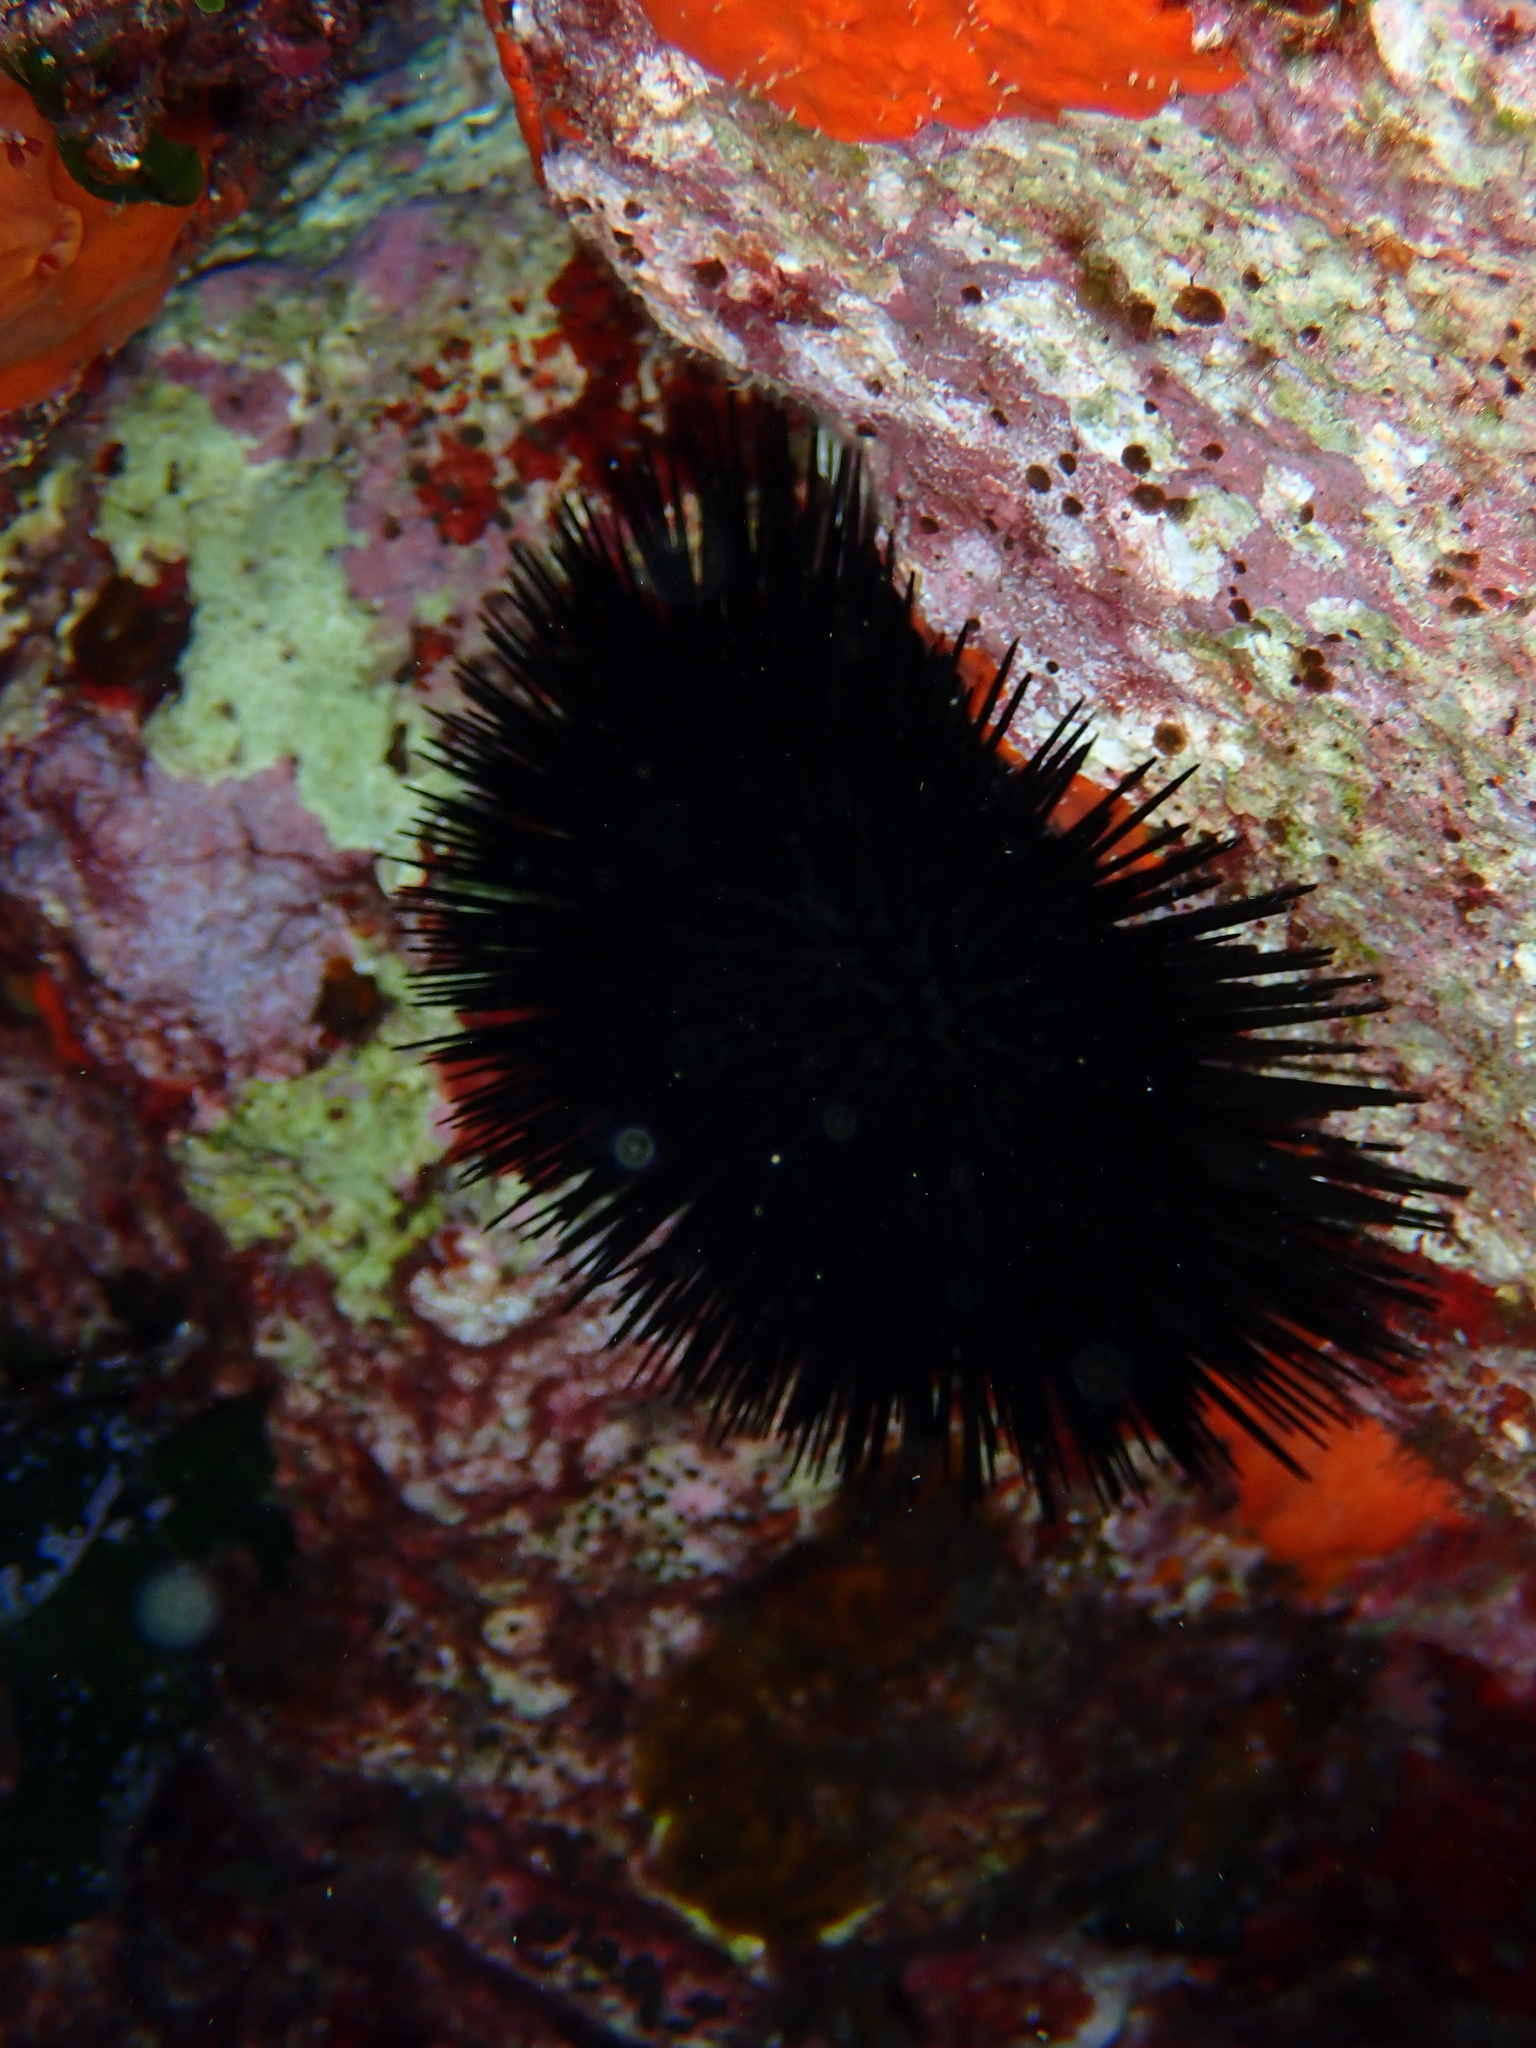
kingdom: Animalia
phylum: Echinodermata
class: Echinoidea
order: Arbacioida
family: Arbaciidae
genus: Arbacia
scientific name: Arbacia lixula
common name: Black sea urchin
